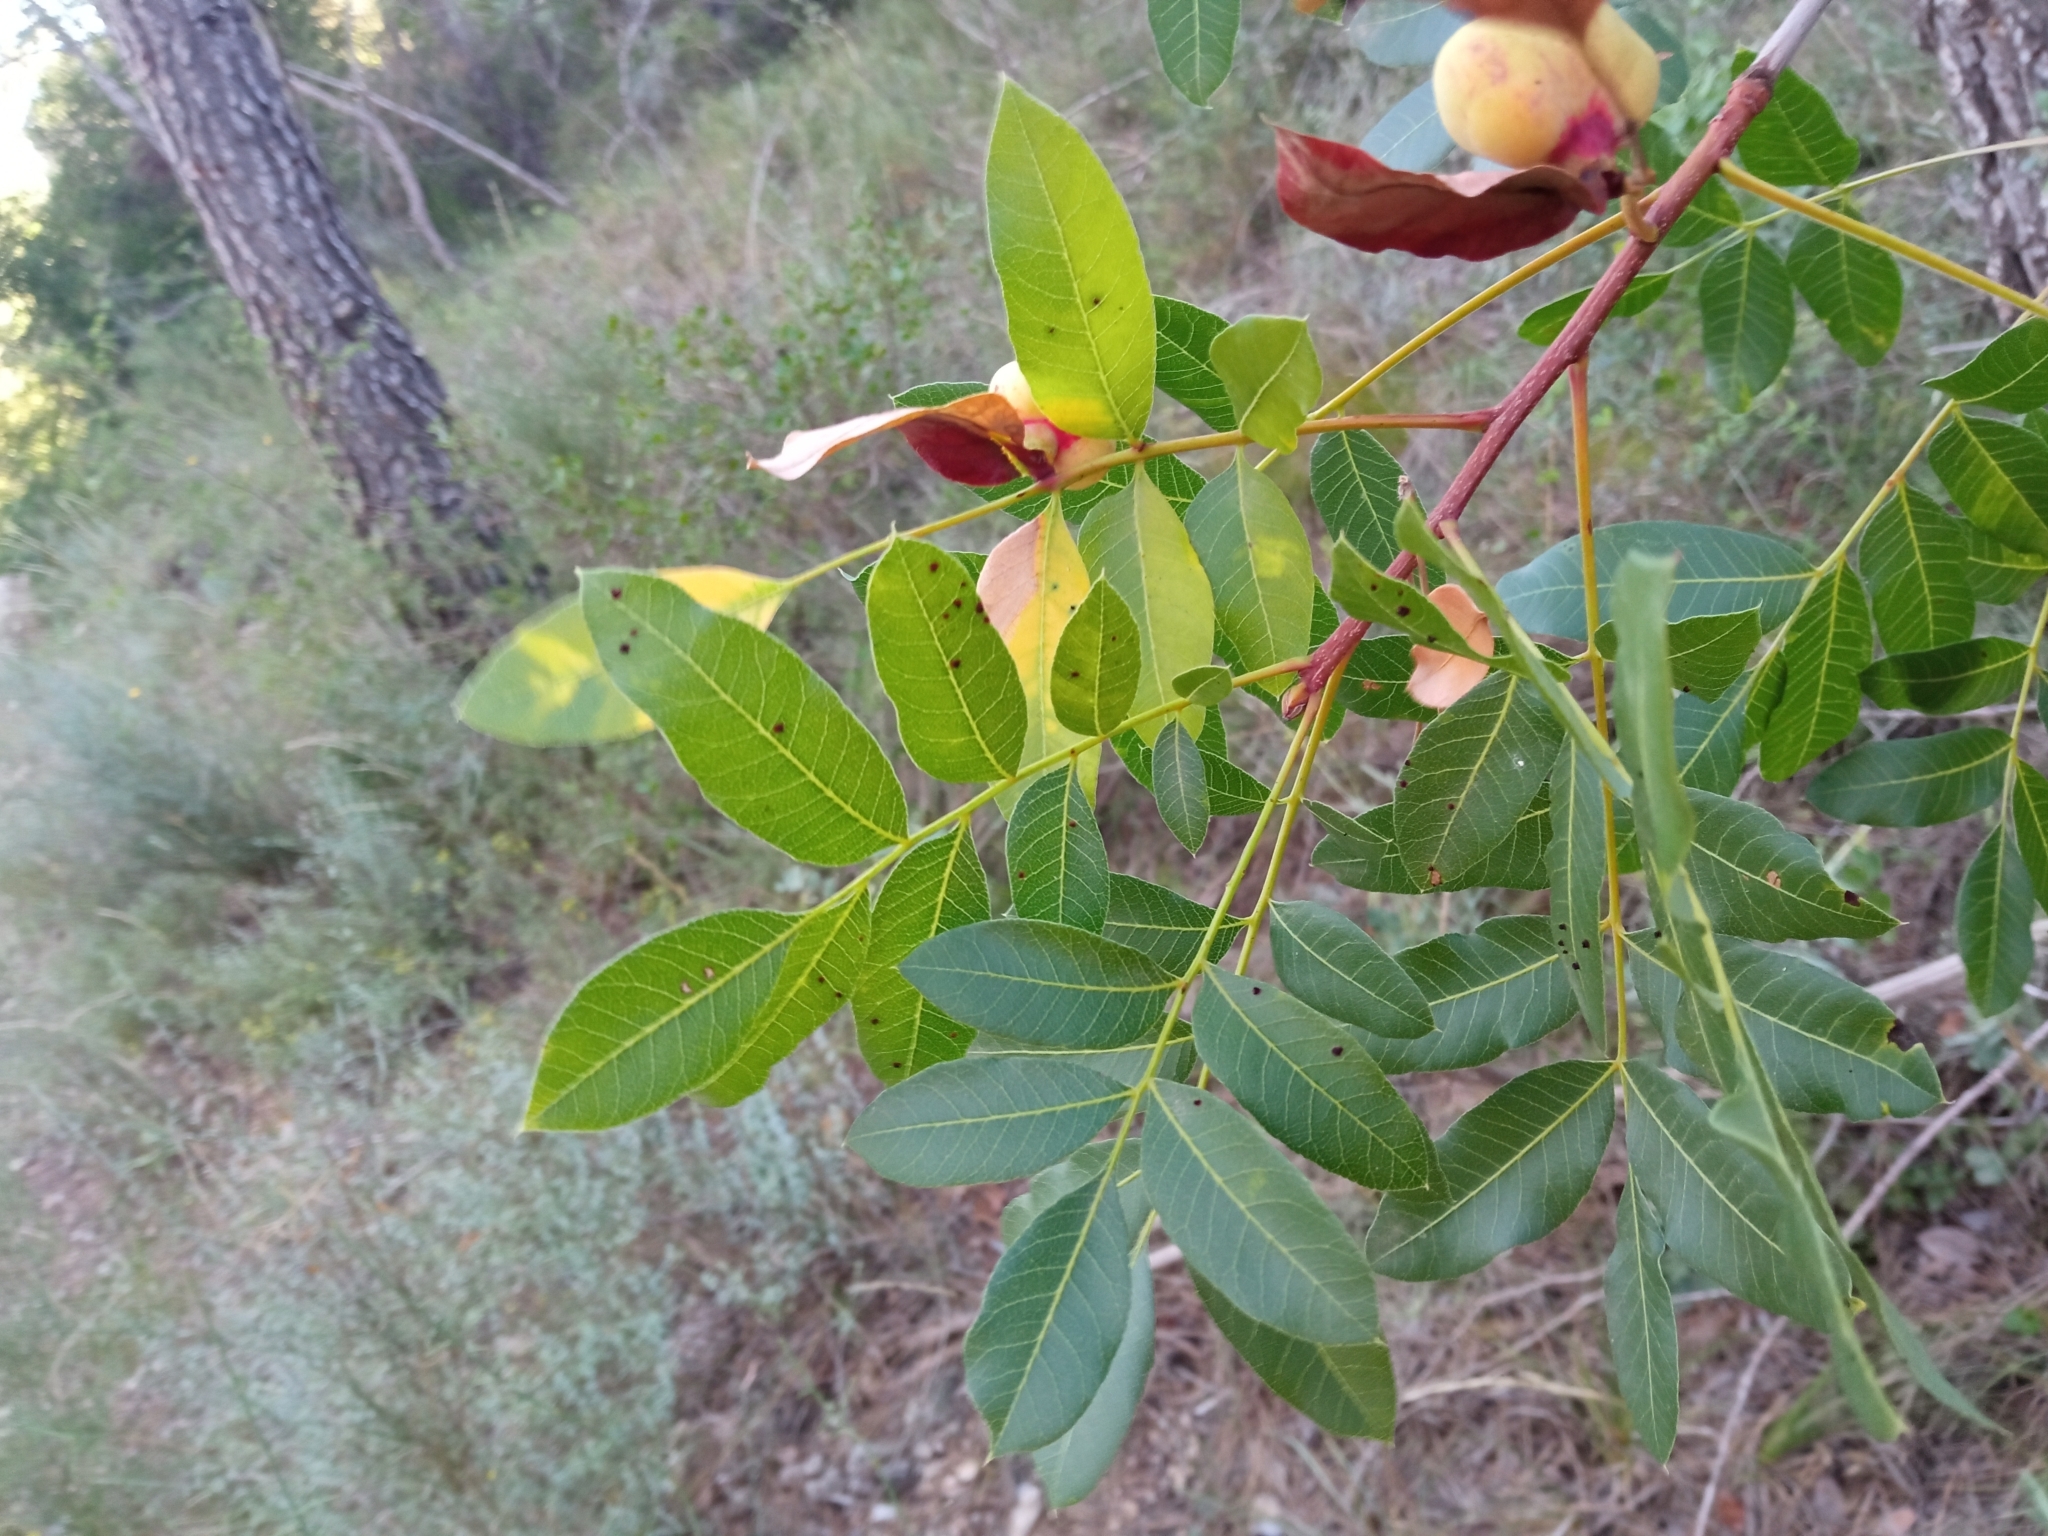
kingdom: Plantae
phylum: Tracheophyta
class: Magnoliopsida
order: Sapindales
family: Anacardiaceae
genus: Pistacia
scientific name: Pistacia terebinthus
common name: Terebinth
